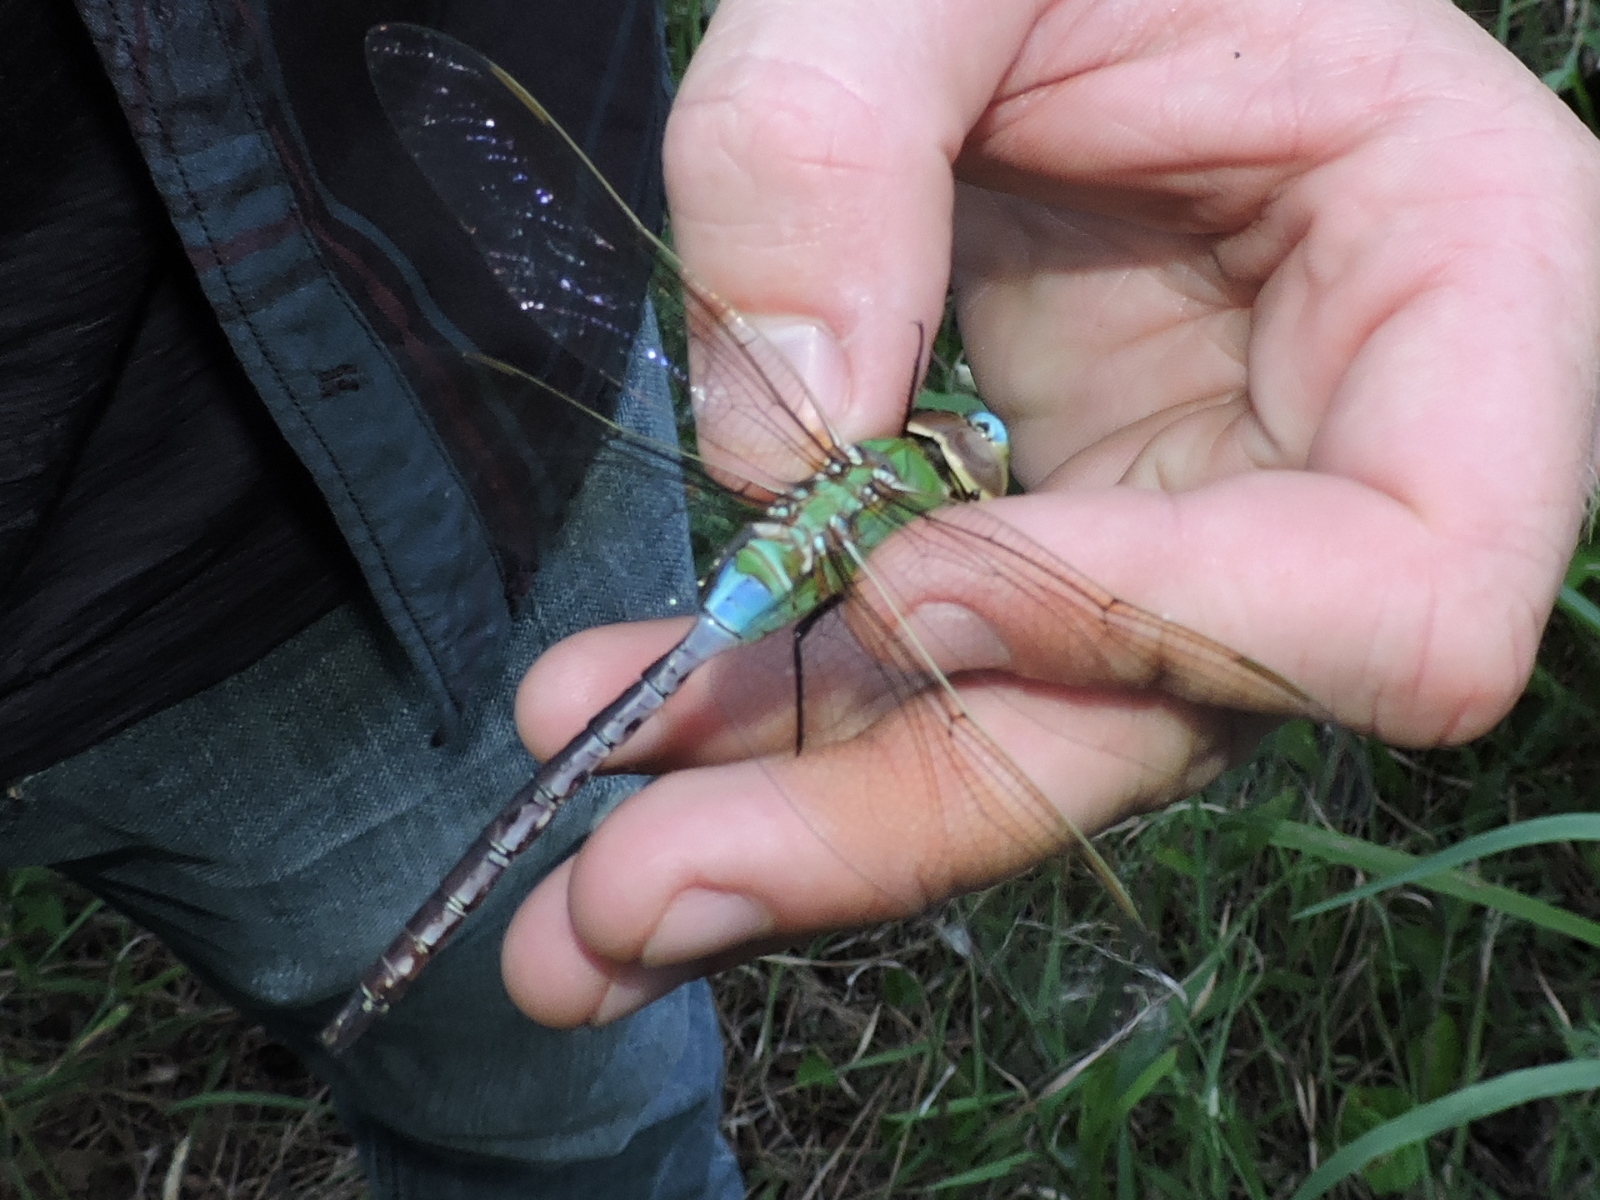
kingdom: Animalia
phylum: Arthropoda
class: Insecta
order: Odonata
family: Aeshnidae
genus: Anax
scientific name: Anax junius
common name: Common green darner
